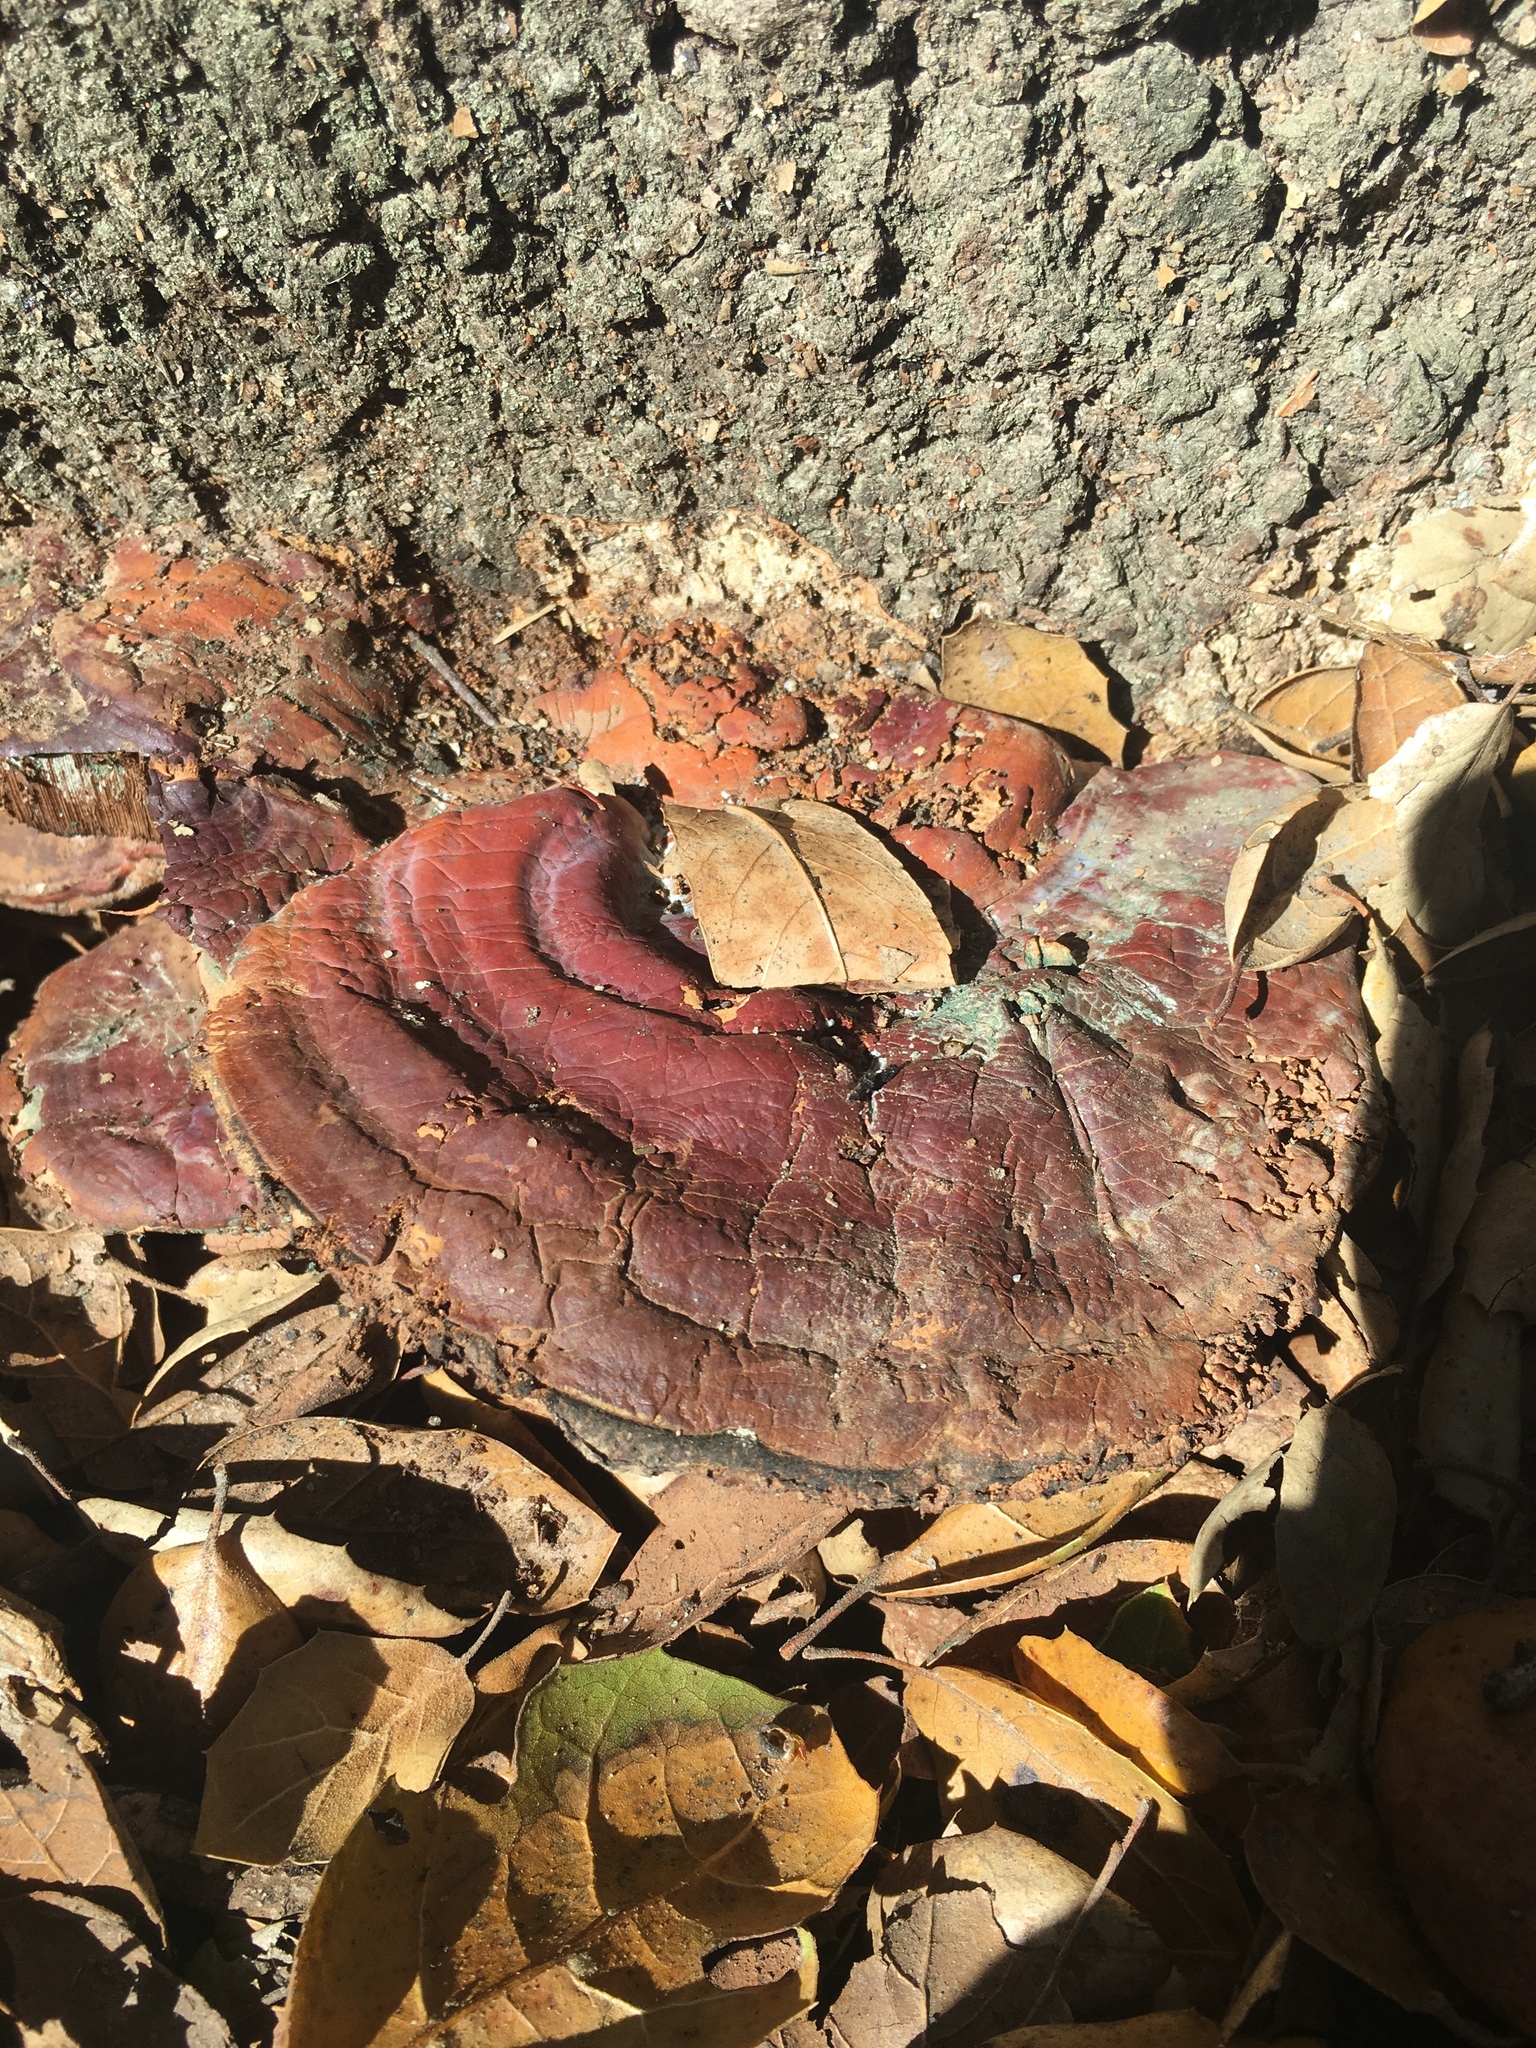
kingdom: Fungi
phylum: Basidiomycota
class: Agaricomycetes
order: Polyporales
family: Polyporaceae
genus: Ganoderma
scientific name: Ganoderma polychromum
